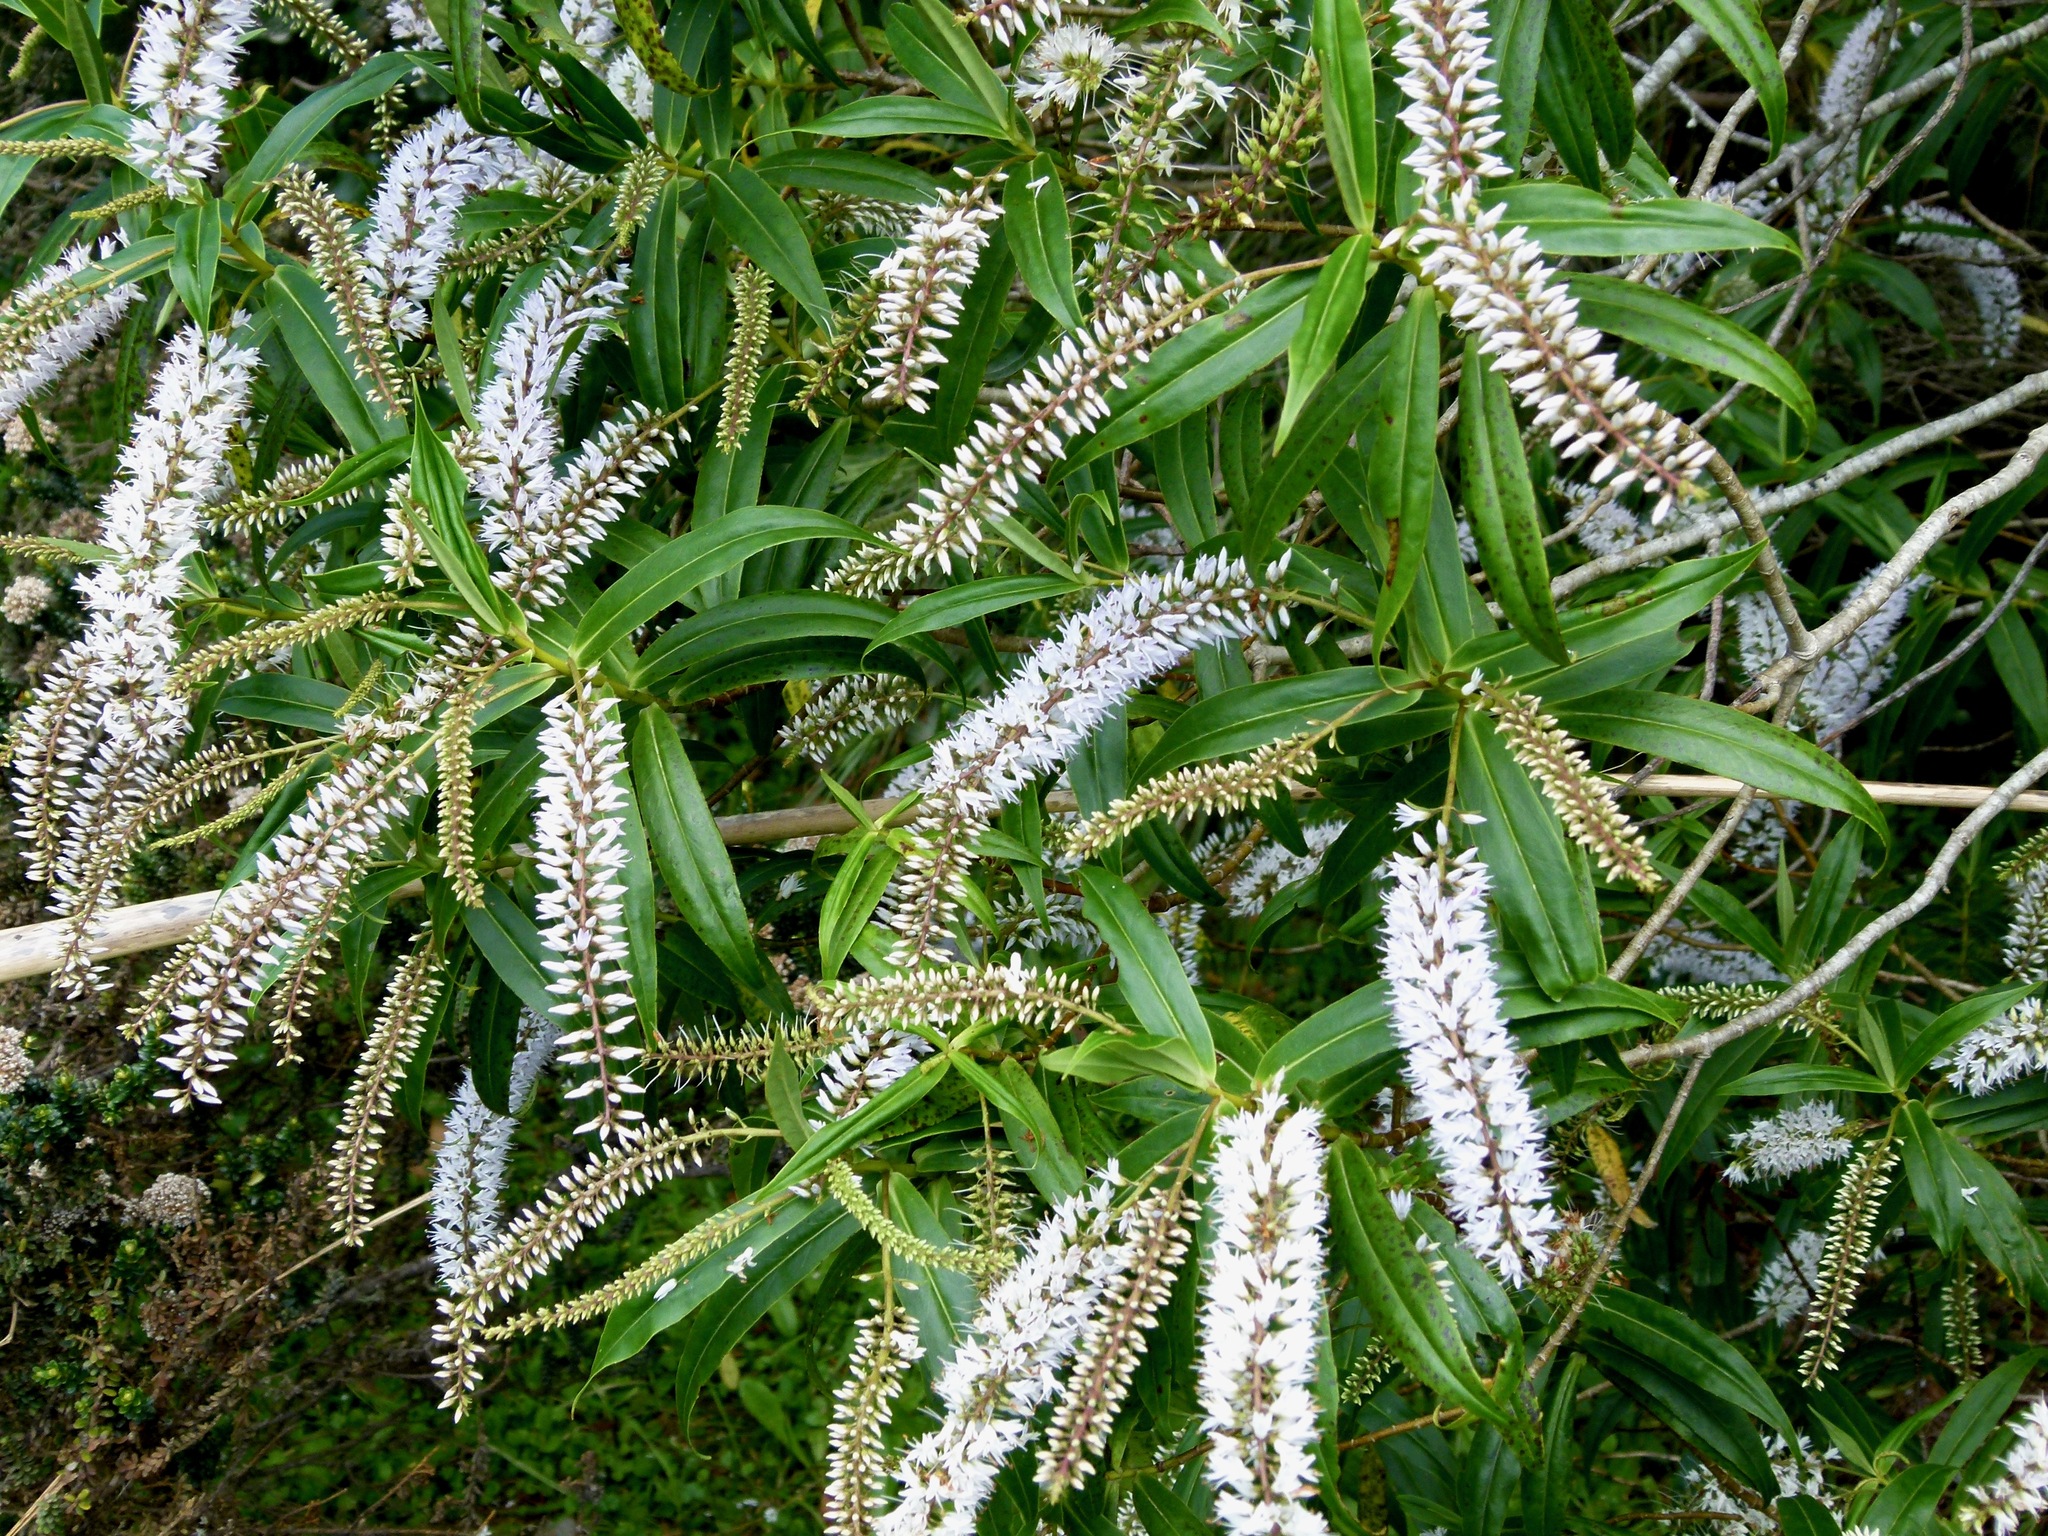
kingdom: Plantae
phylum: Tracheophyta
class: Magnoliopsida
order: Lamiales
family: Plantaginaceae
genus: Veronica
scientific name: Veronica salicifolia
